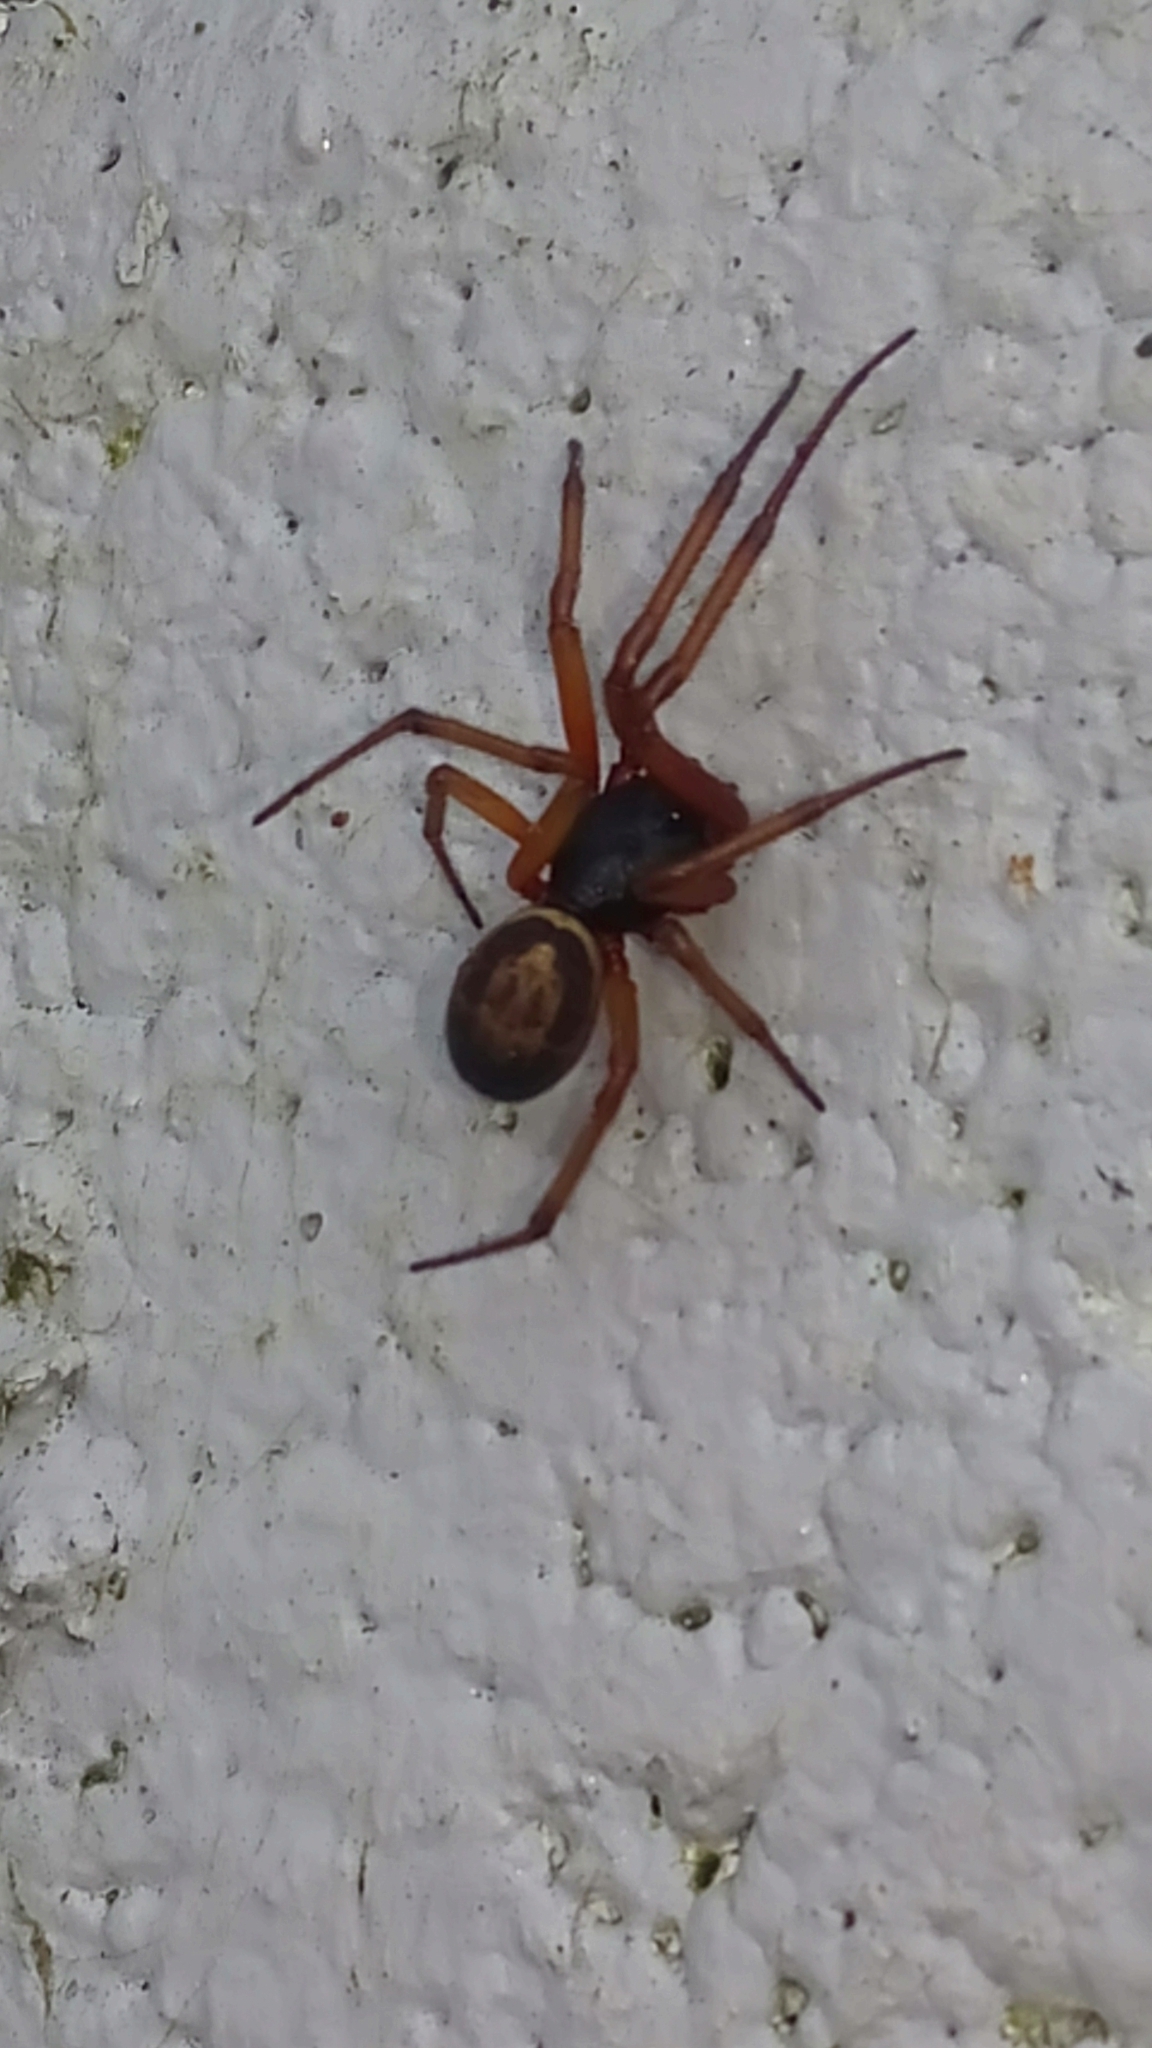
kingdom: Animalia
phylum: Arthropoda
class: Arachnida
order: Araneae
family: Theridiidae
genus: Steatoda
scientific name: Steatoda nobilis
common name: Cobweb weaver
